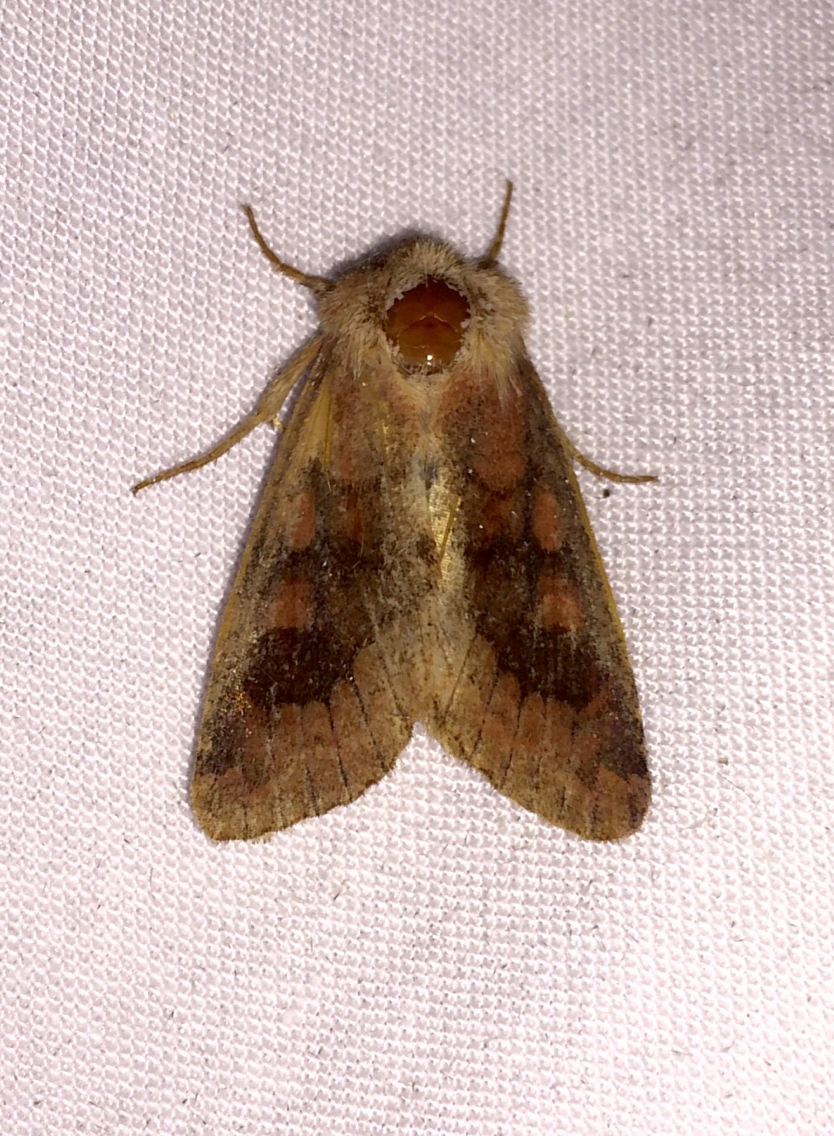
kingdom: Animalia
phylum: Arthropoda
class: Insecta
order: Lepidoptera
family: Noctuidae
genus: Nephelodes
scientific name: Nephelodes minians
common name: Bronzed cutworm
